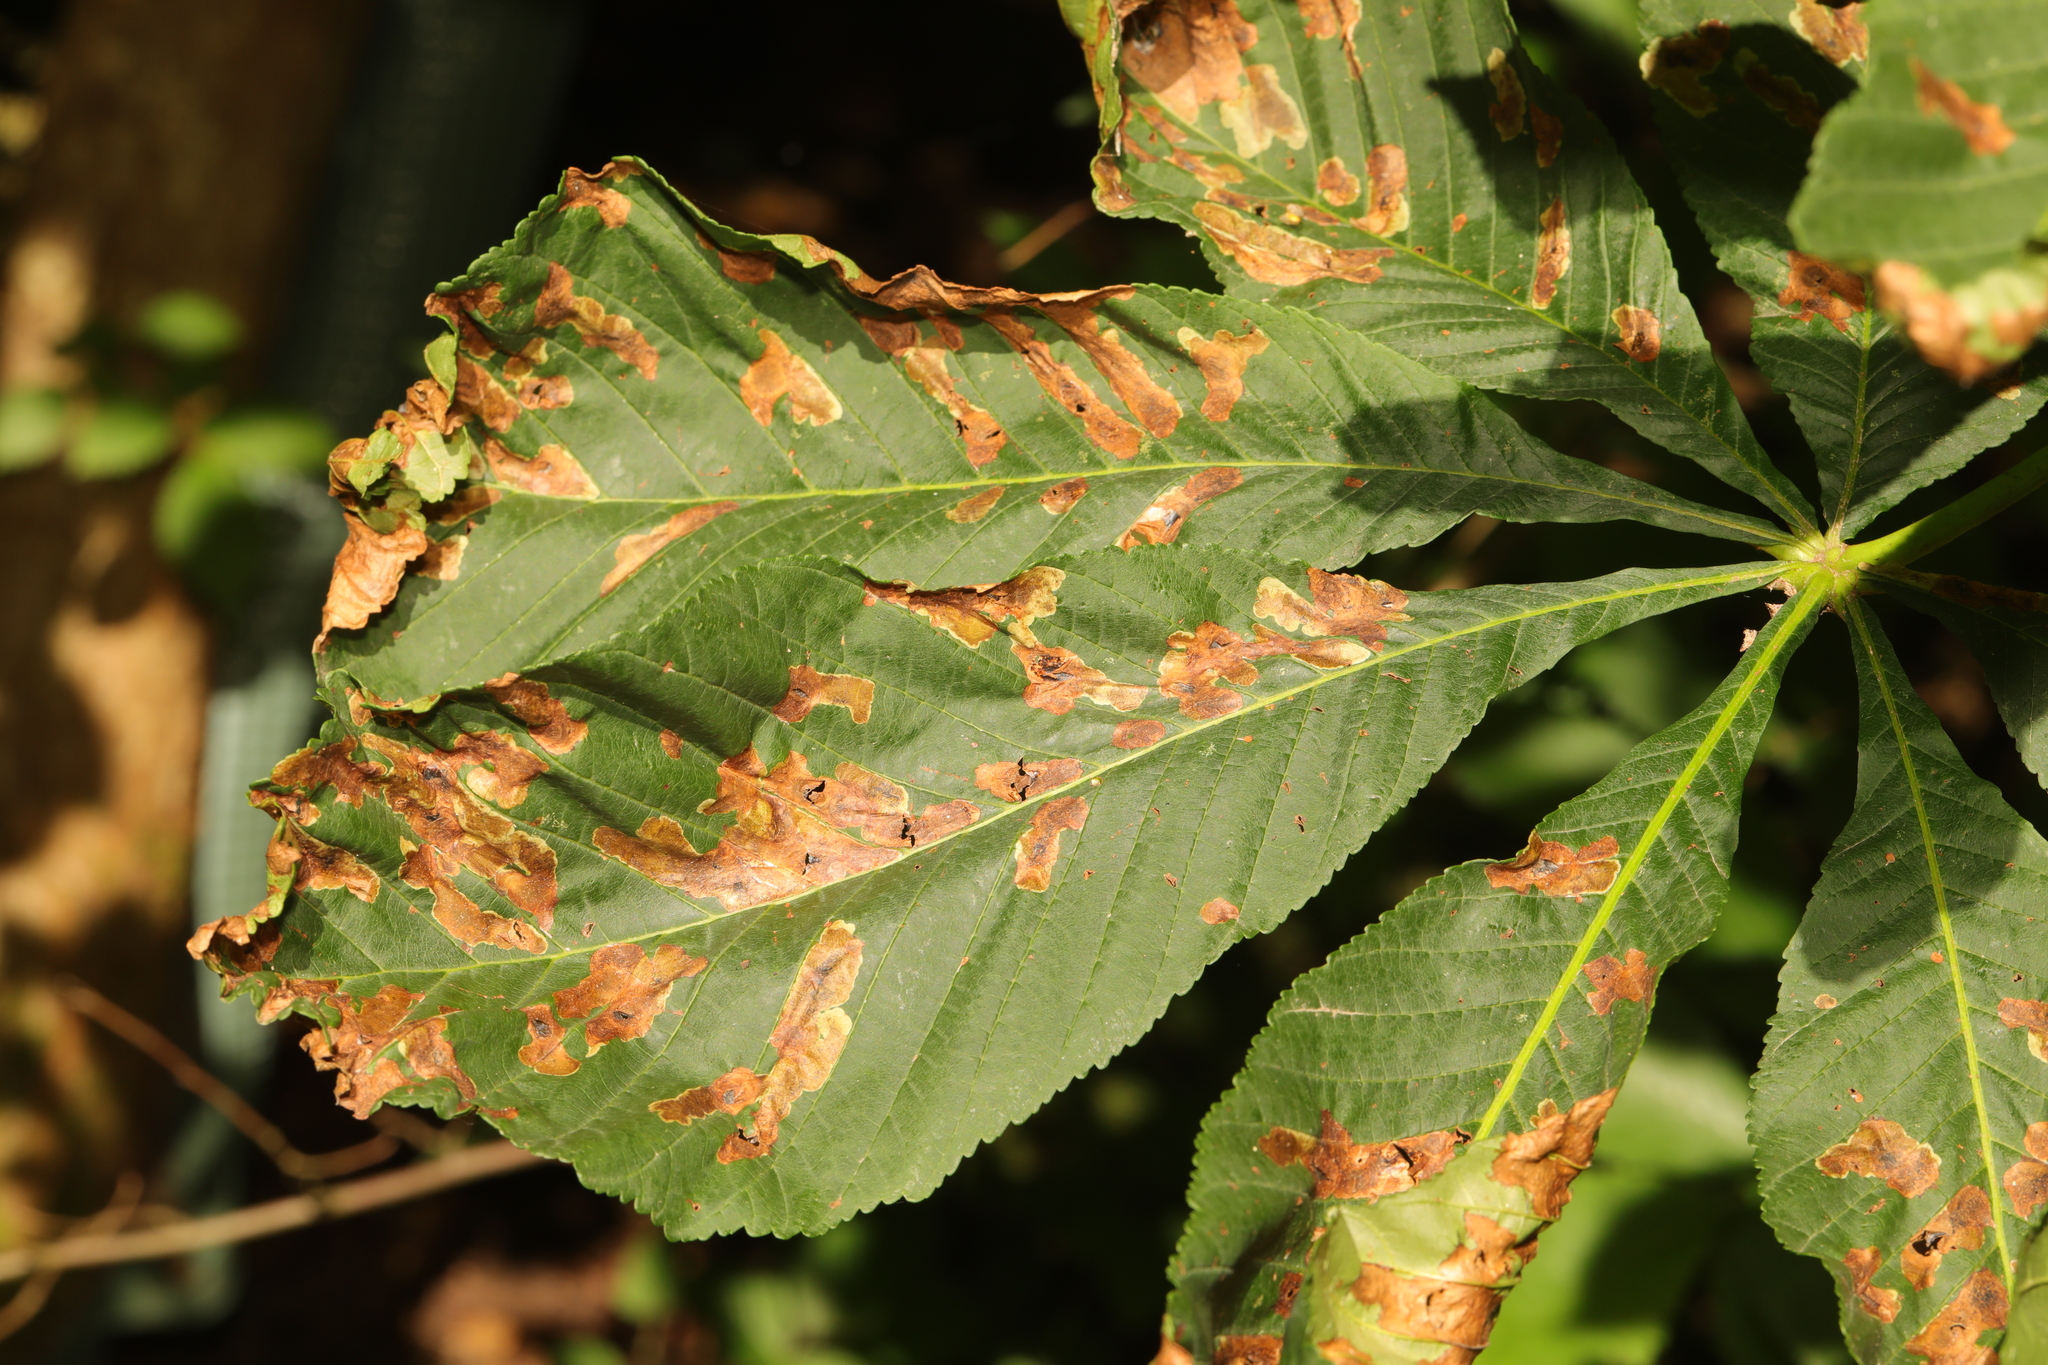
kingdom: Animalia
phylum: Arthropoda
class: Insecta
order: Lepidoptera
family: Gracillariidae
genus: Cameraria
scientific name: Cameraria ohridella
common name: Horse-chestnut leaf-miner
